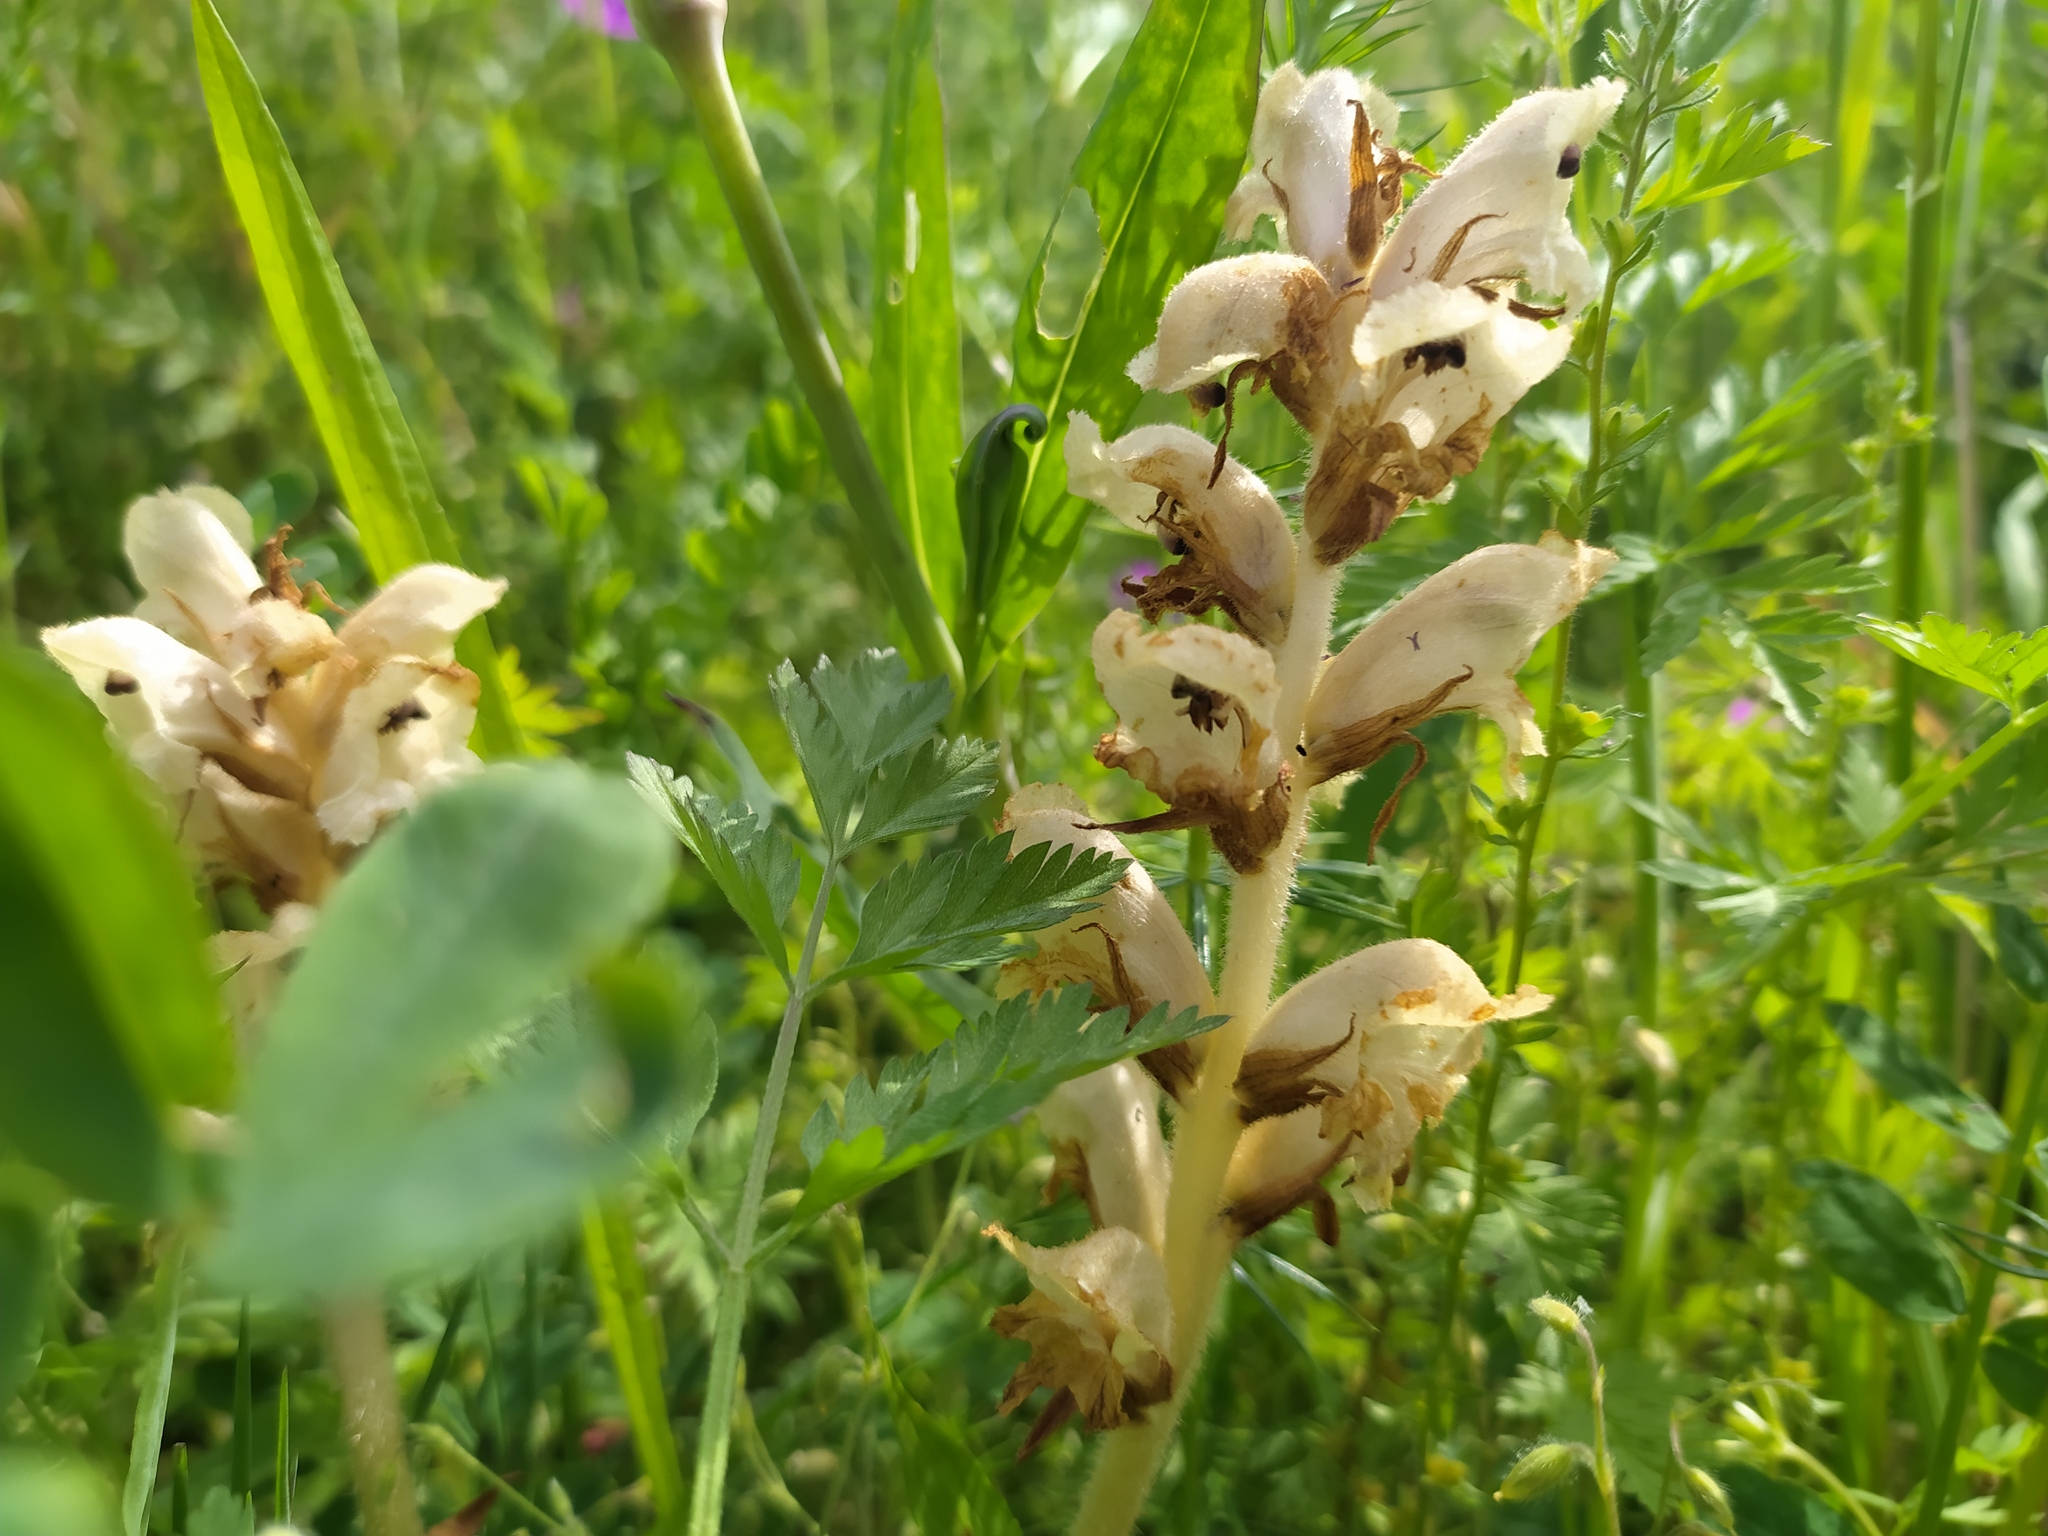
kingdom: Plantae
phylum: Tracheophyta
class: Magnoliopsida
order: Lamiales
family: Orobanchaceae
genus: Orobanche
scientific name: Orobanche caryophyllacea
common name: Bedstraw broomrape
